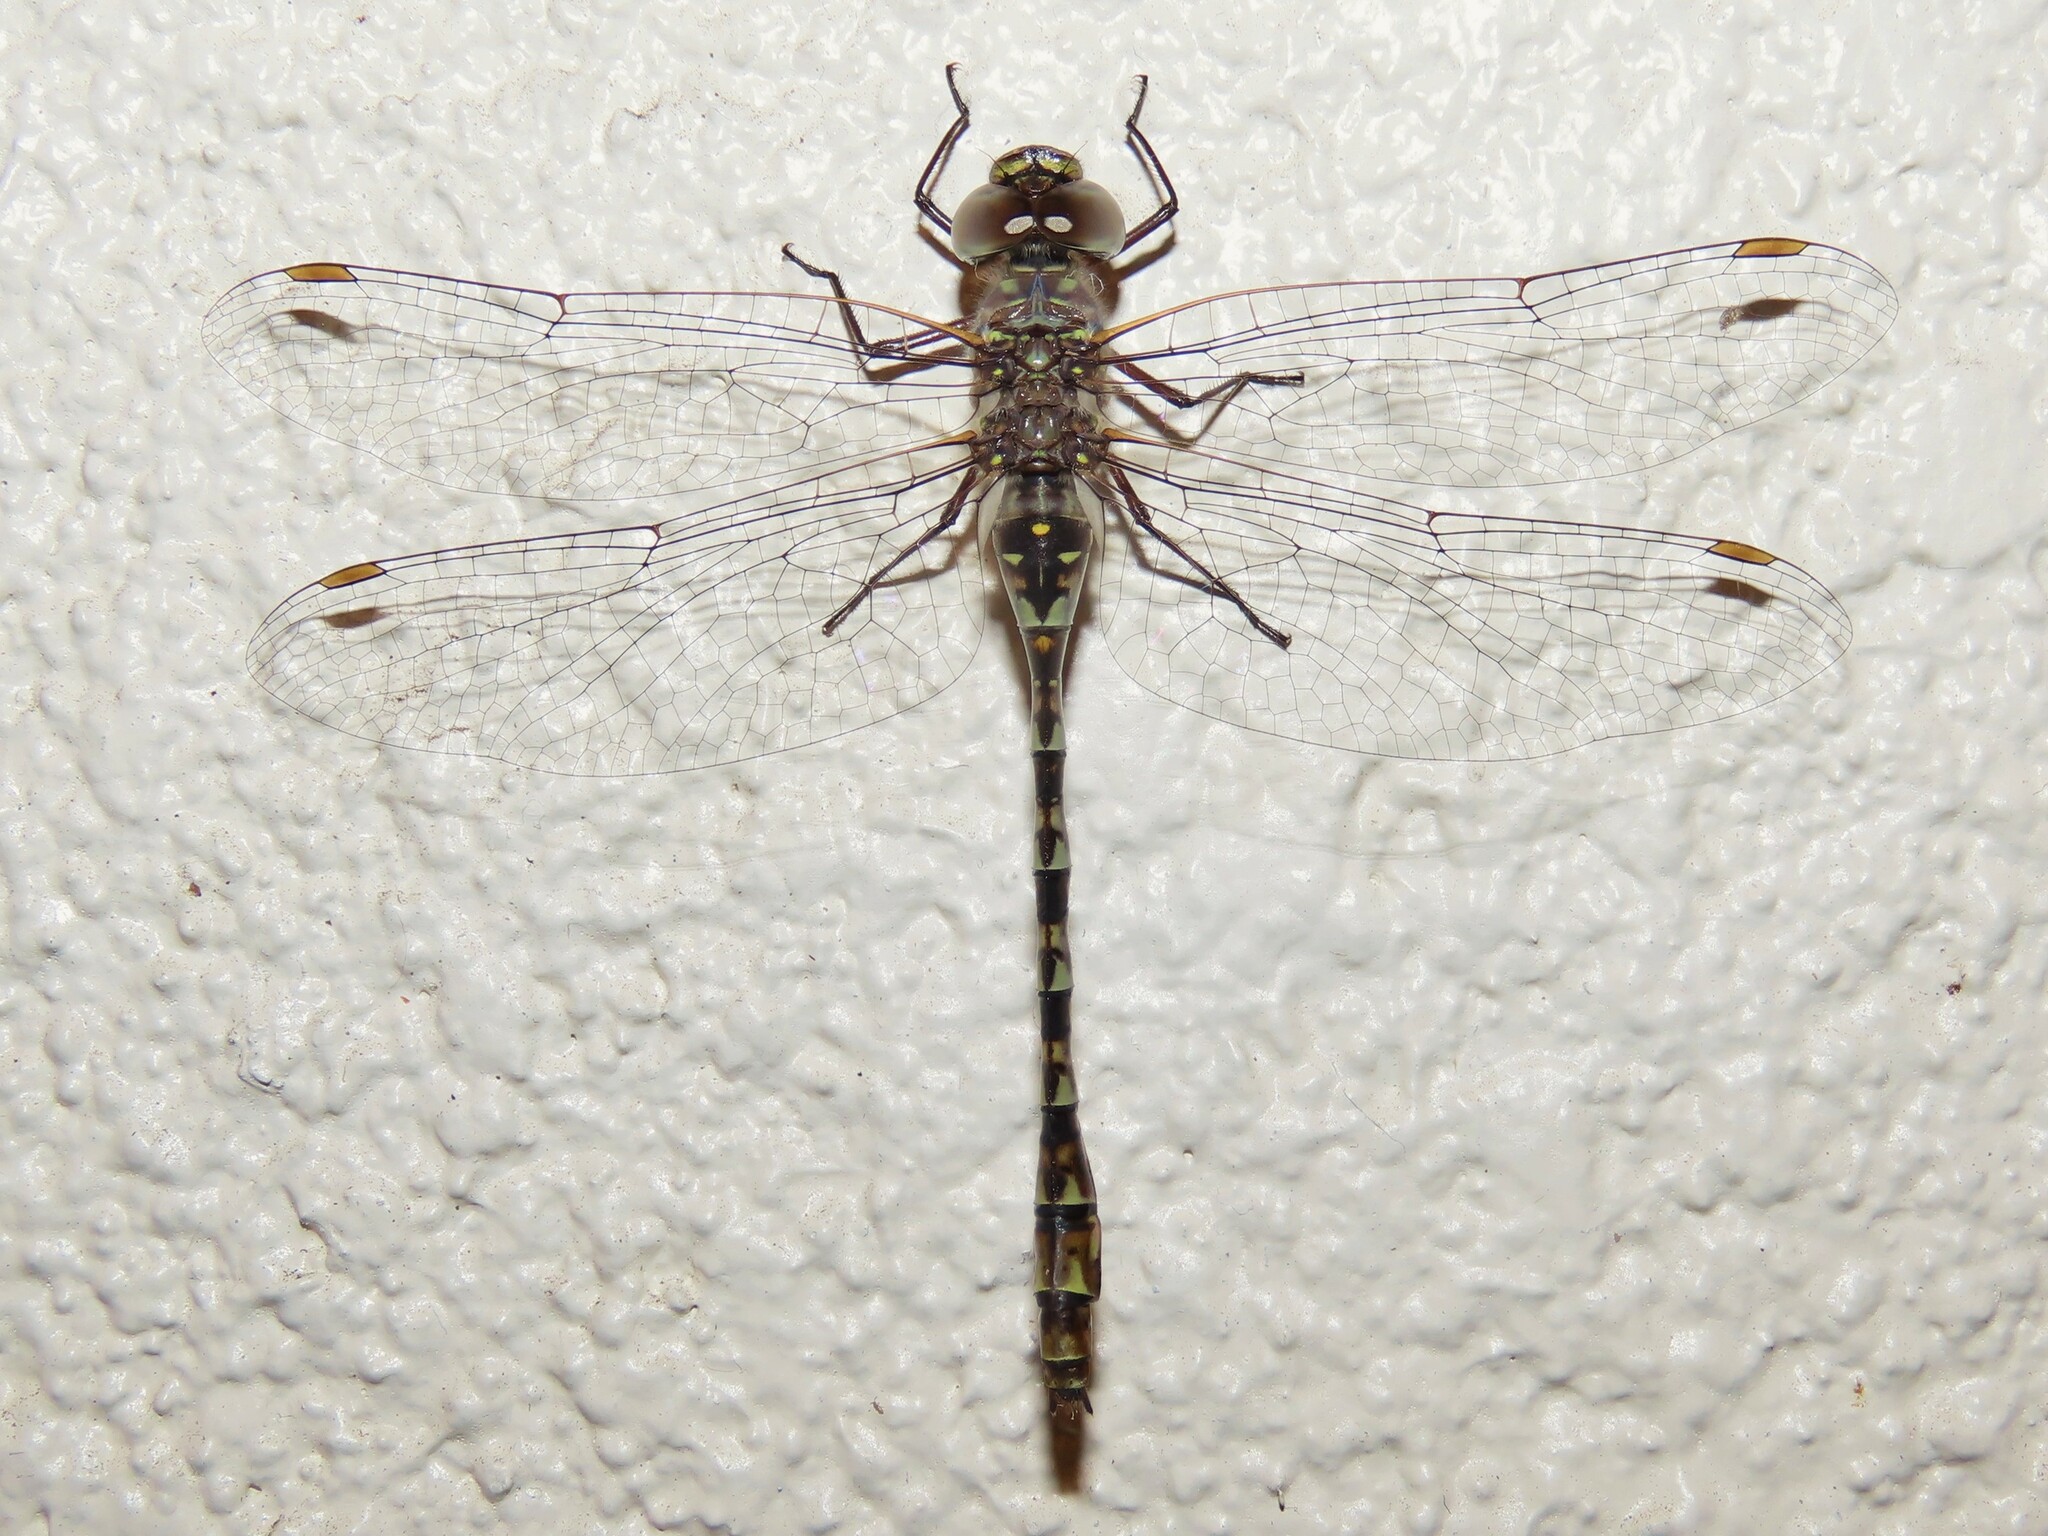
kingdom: Animalia
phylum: Arthropoda
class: Insecta
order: Odonata
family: Aeshnidae
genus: Gomphaeschna
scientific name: Gomphaeschna antilope
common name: Taper-tailed darner
